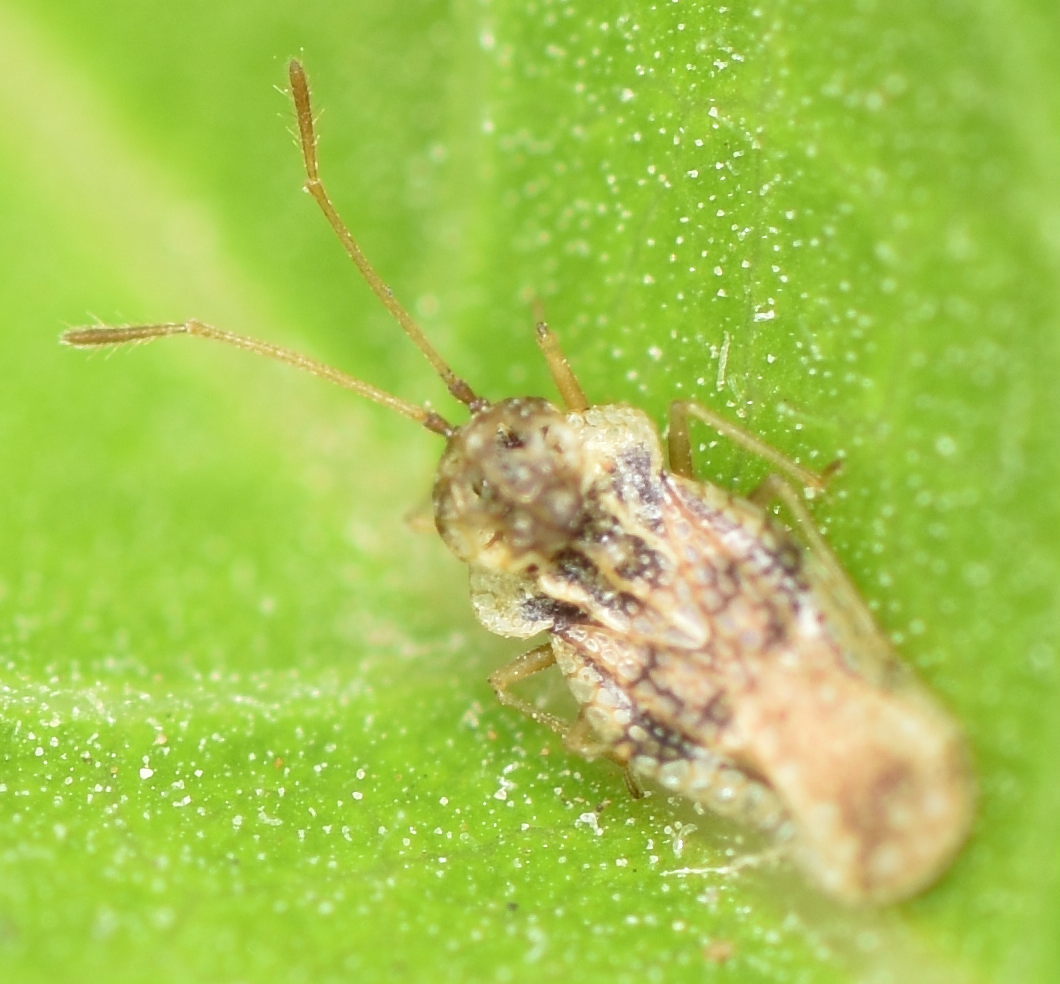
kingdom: Animalia
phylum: Arthropoda
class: Insecta
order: Hemiptera
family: Tingidae
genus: Corythauma
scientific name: Corythauma ayyari
